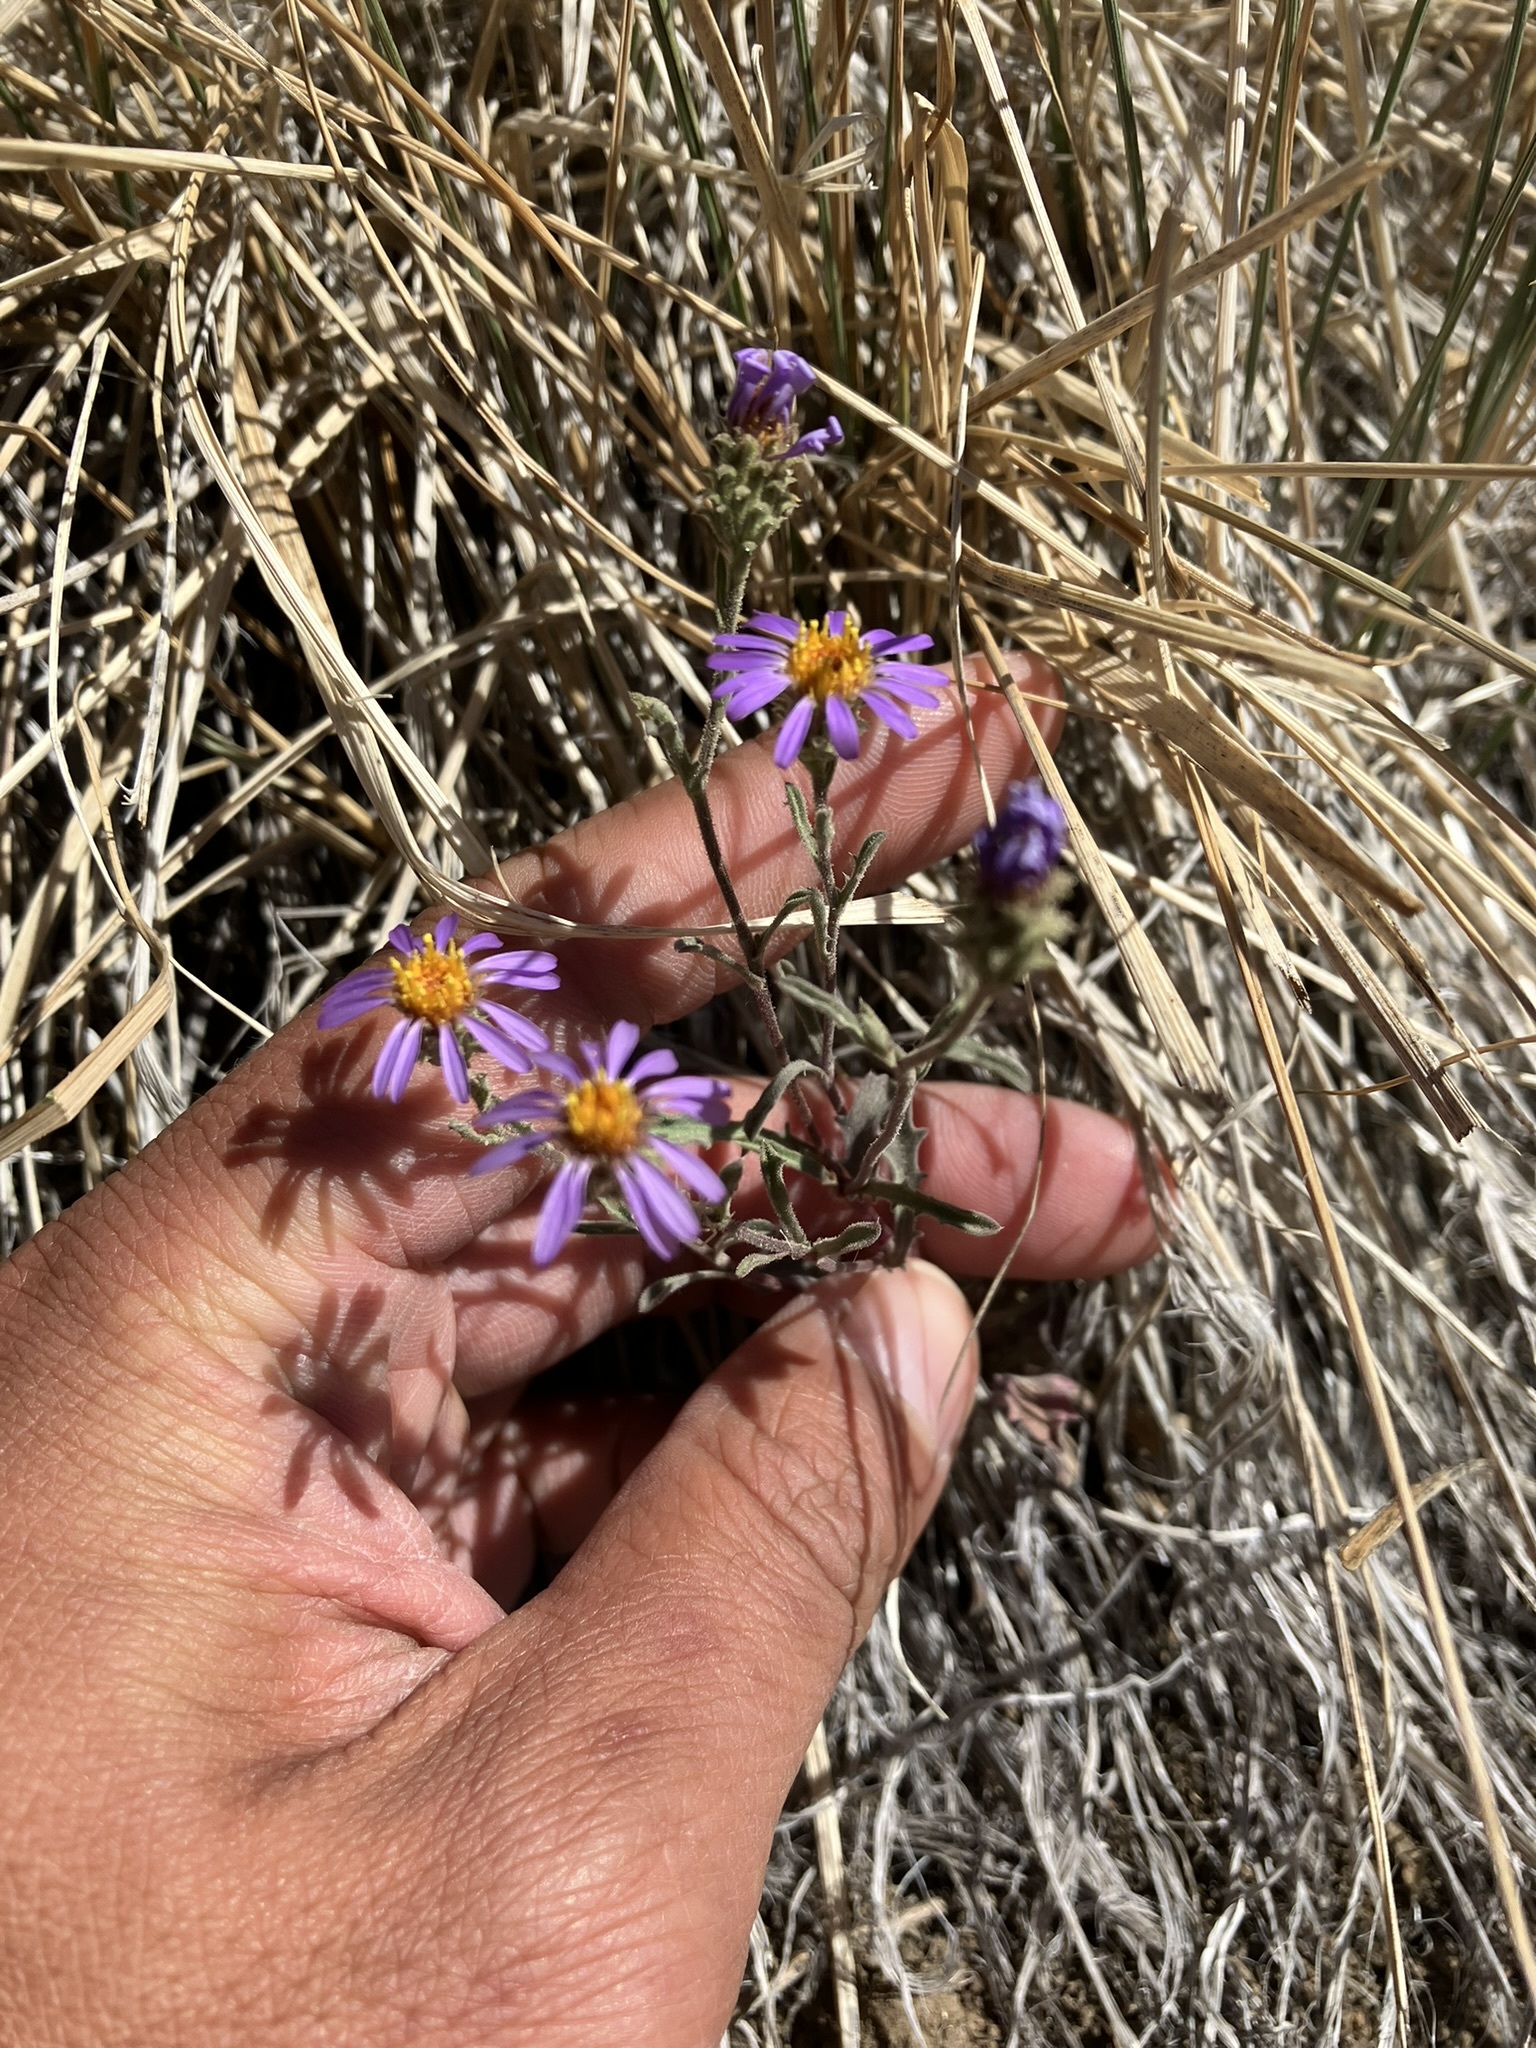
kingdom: Plantae
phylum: Tracheophyta
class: Magnoliopsida
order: Asterales
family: Asteraceae
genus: Dieteria
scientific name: Dieteria canescens
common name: Hoary-aster
